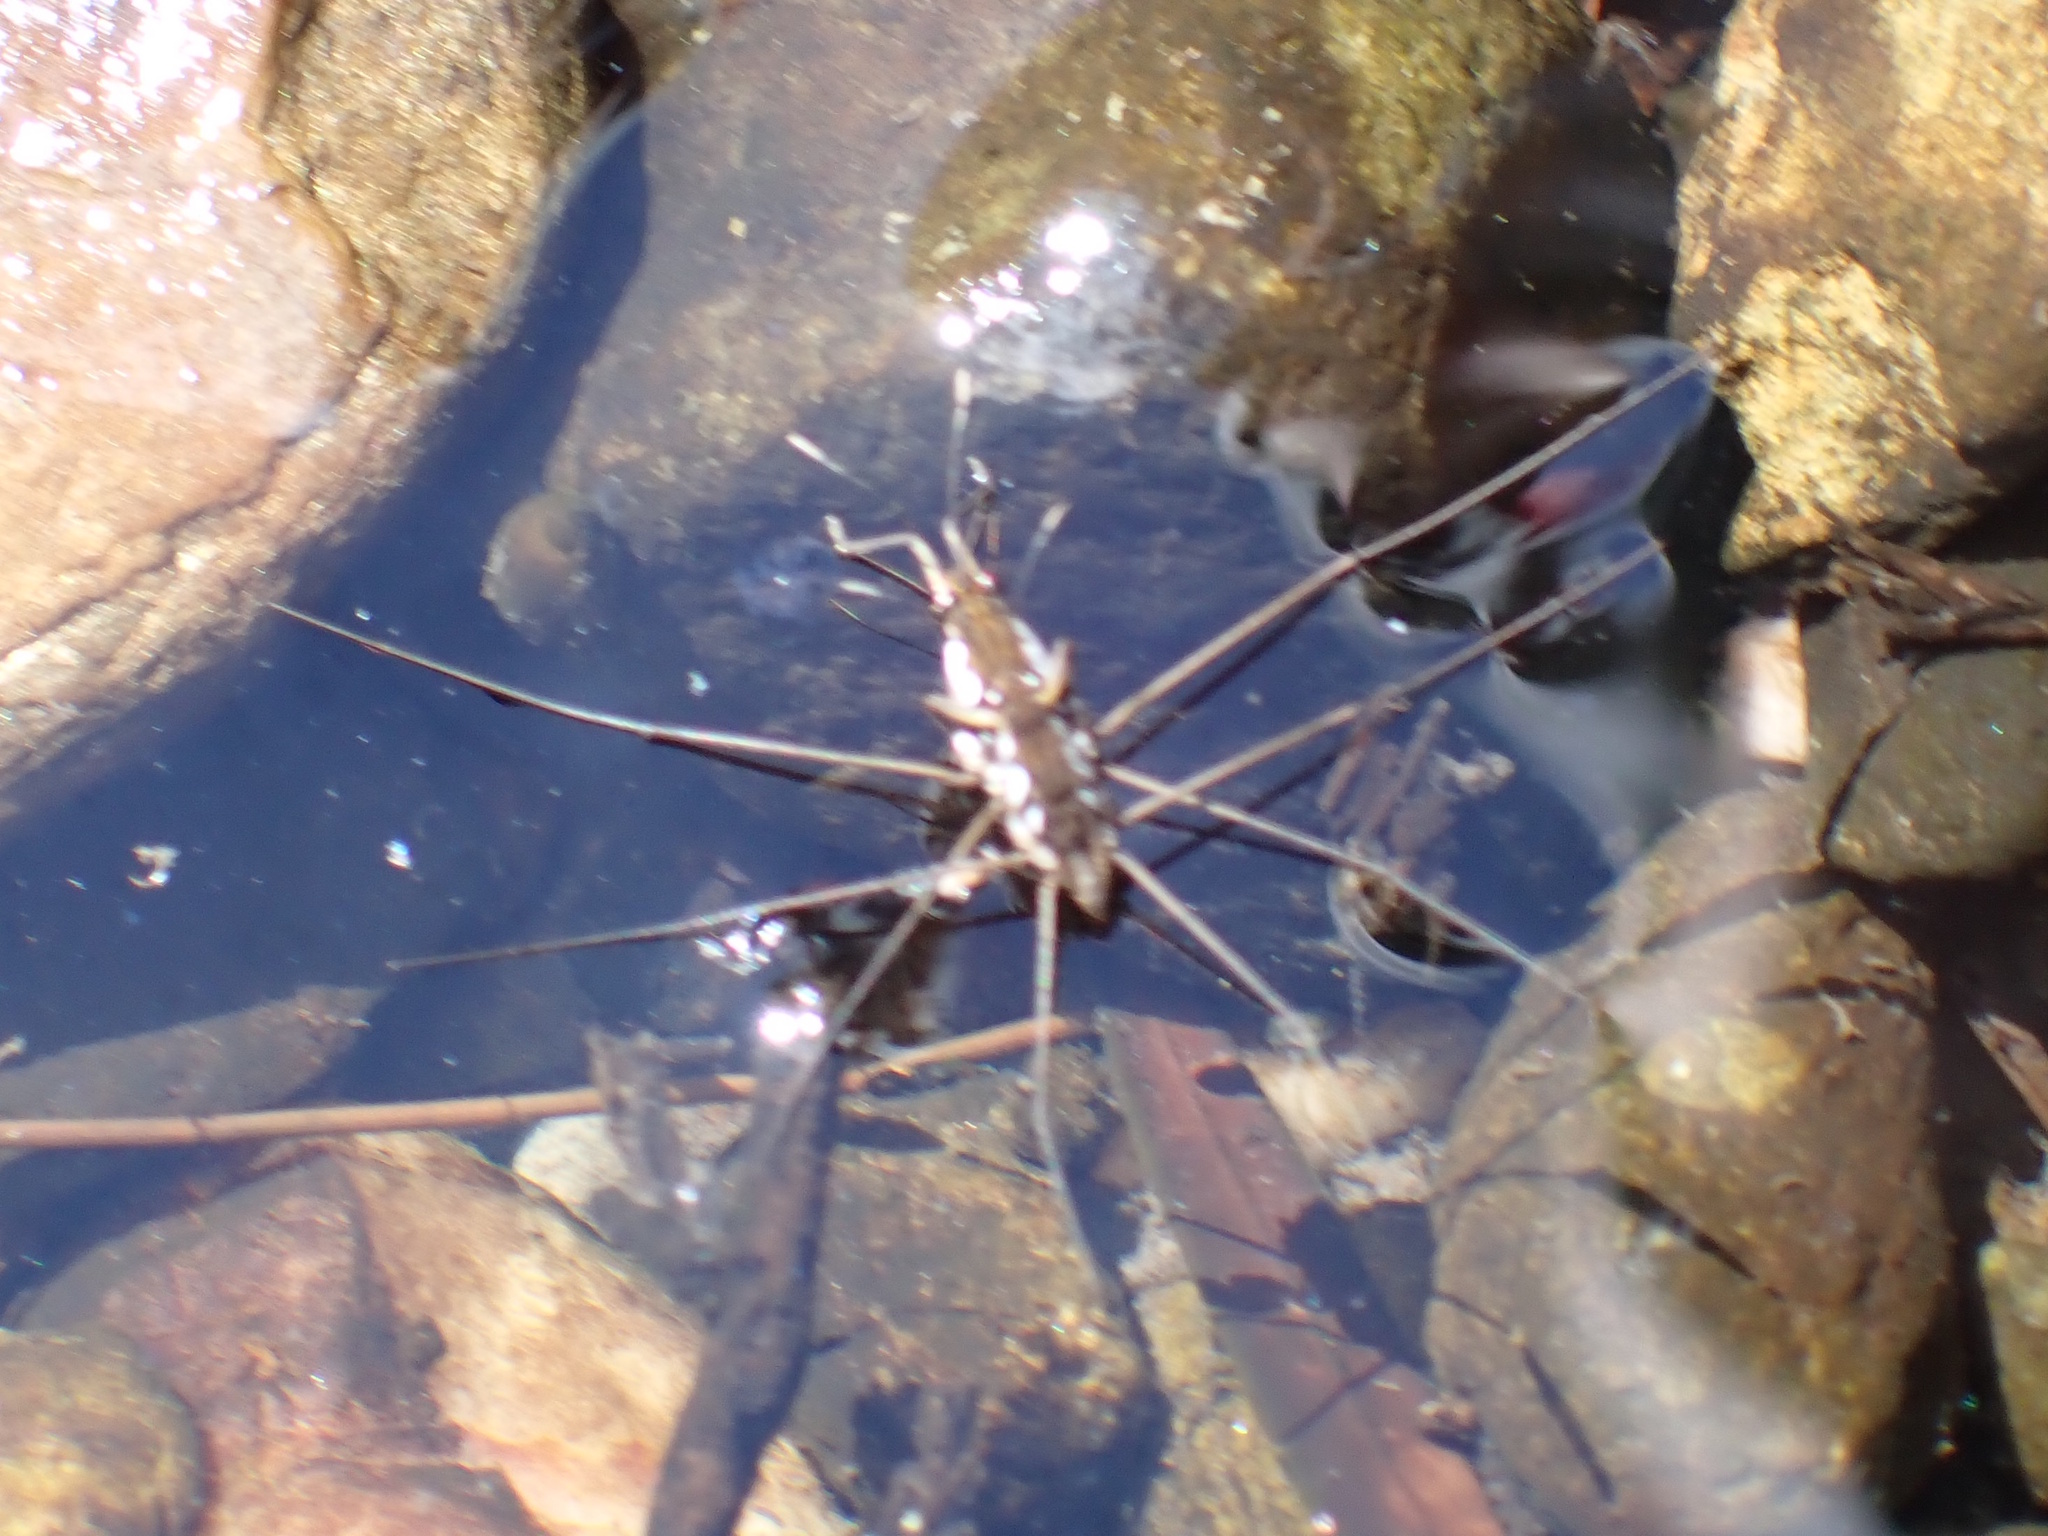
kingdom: Animalia
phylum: Arthropoda
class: Insecta
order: Hemiptera
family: Gerridae
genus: Tenagogerris
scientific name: Tenagogerris euphrosyne
